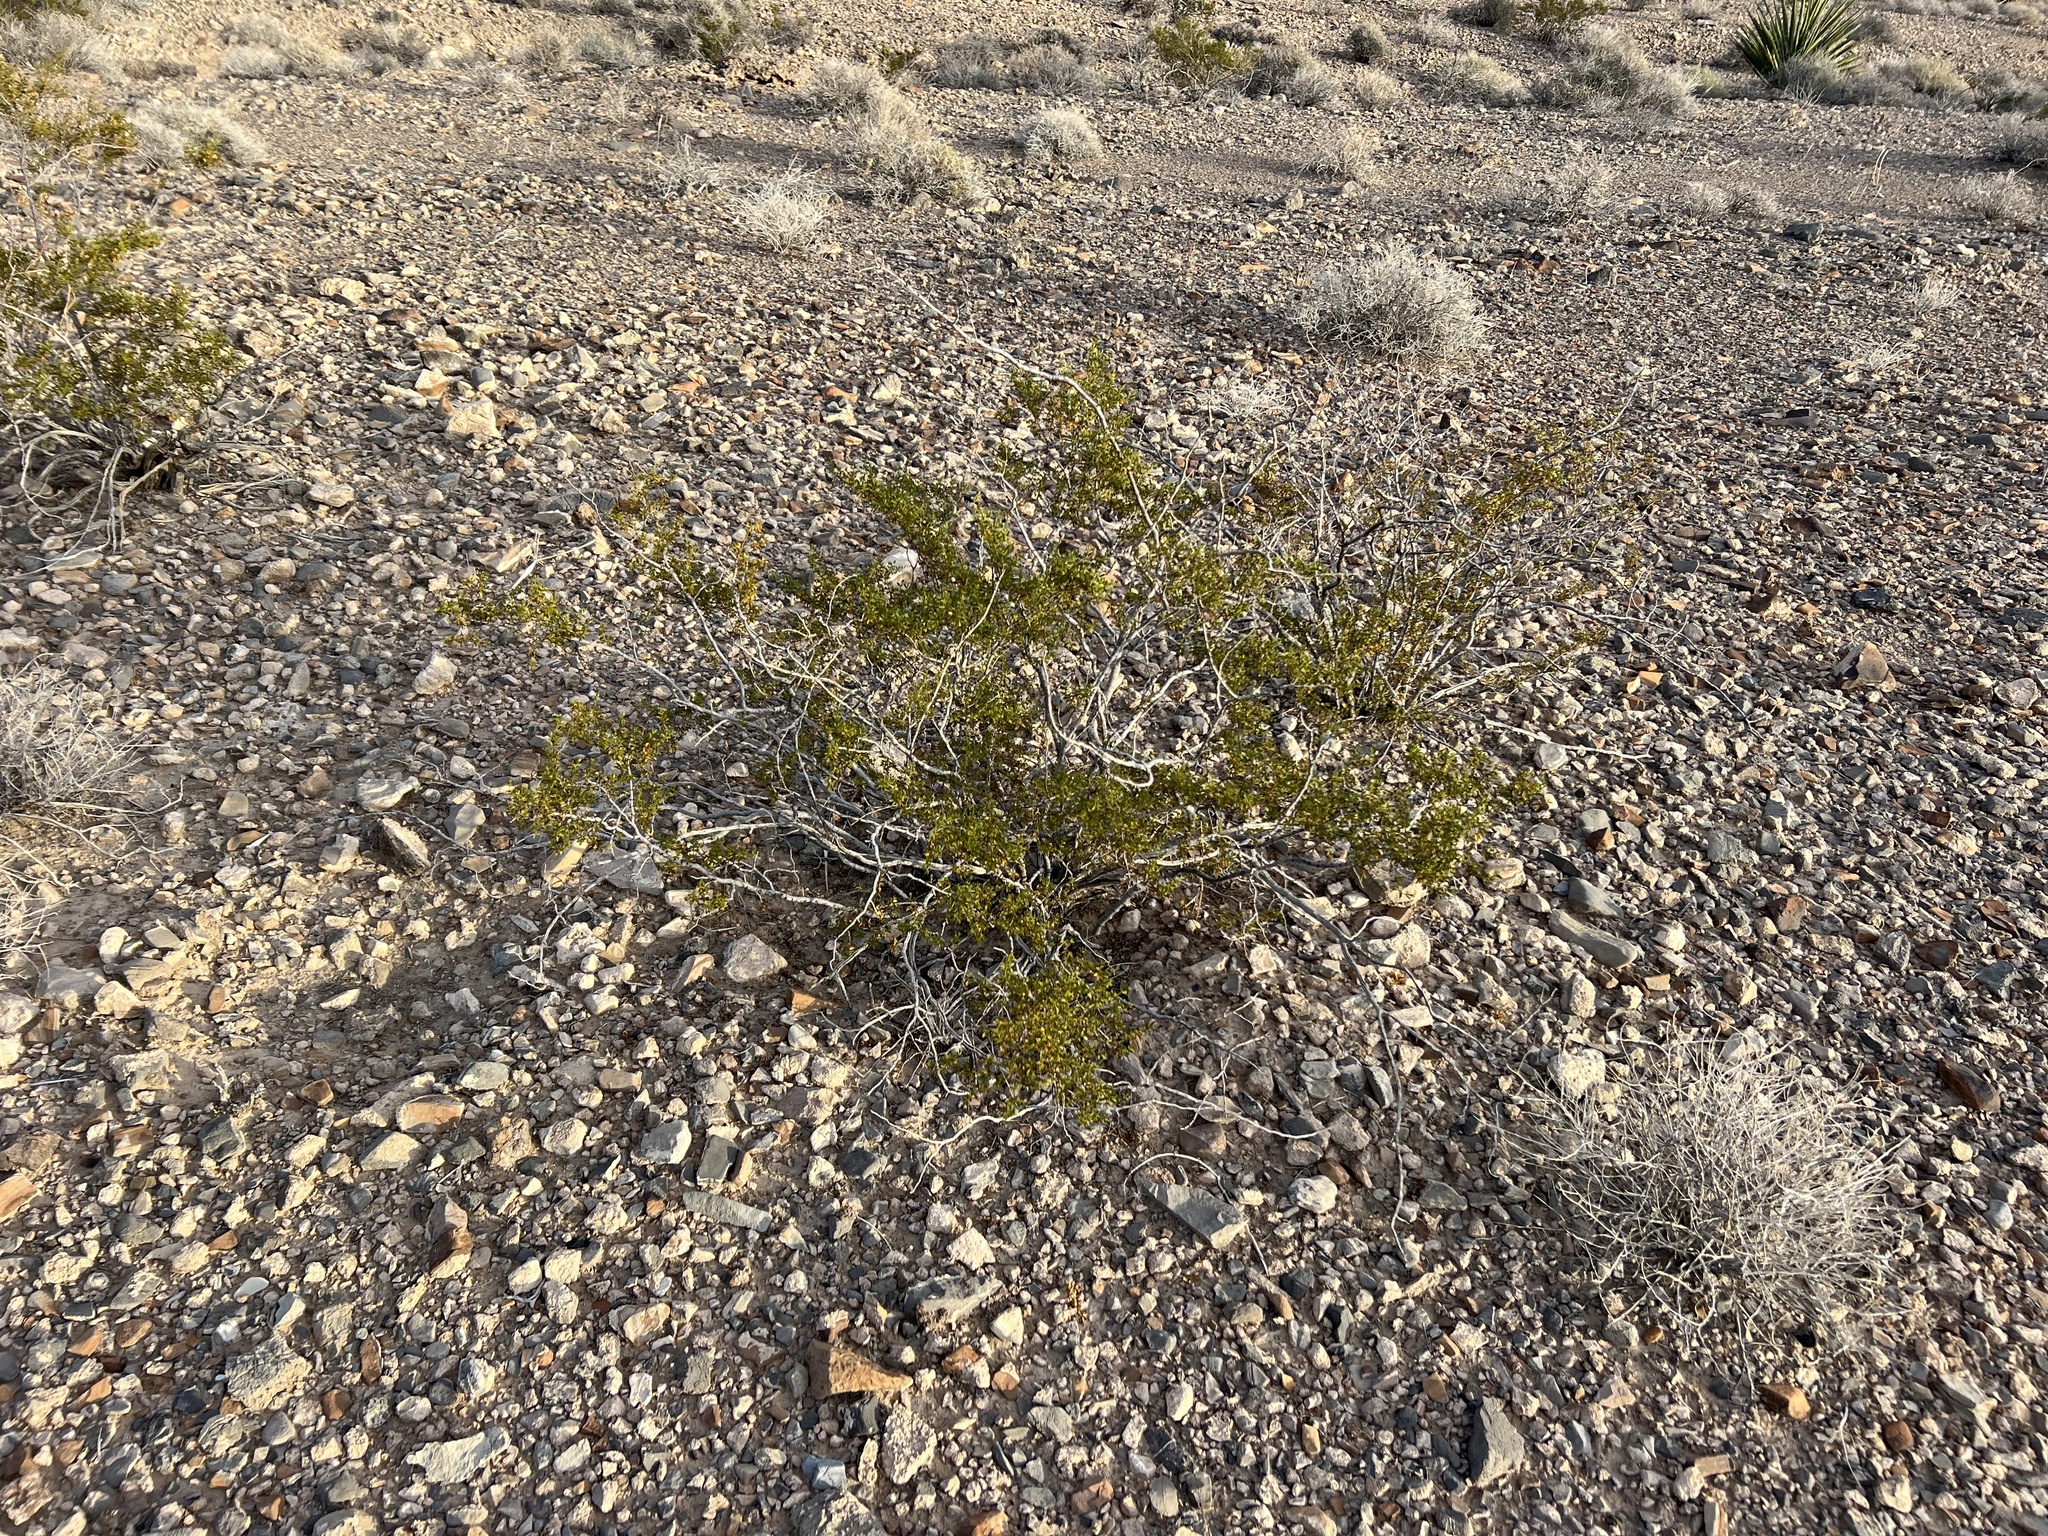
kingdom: Plantae
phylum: Tracheophyta
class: Magnoliopsida
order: Zygophyllales
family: Zygophyllaceae
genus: Larrea
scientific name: Larrea tridentata
